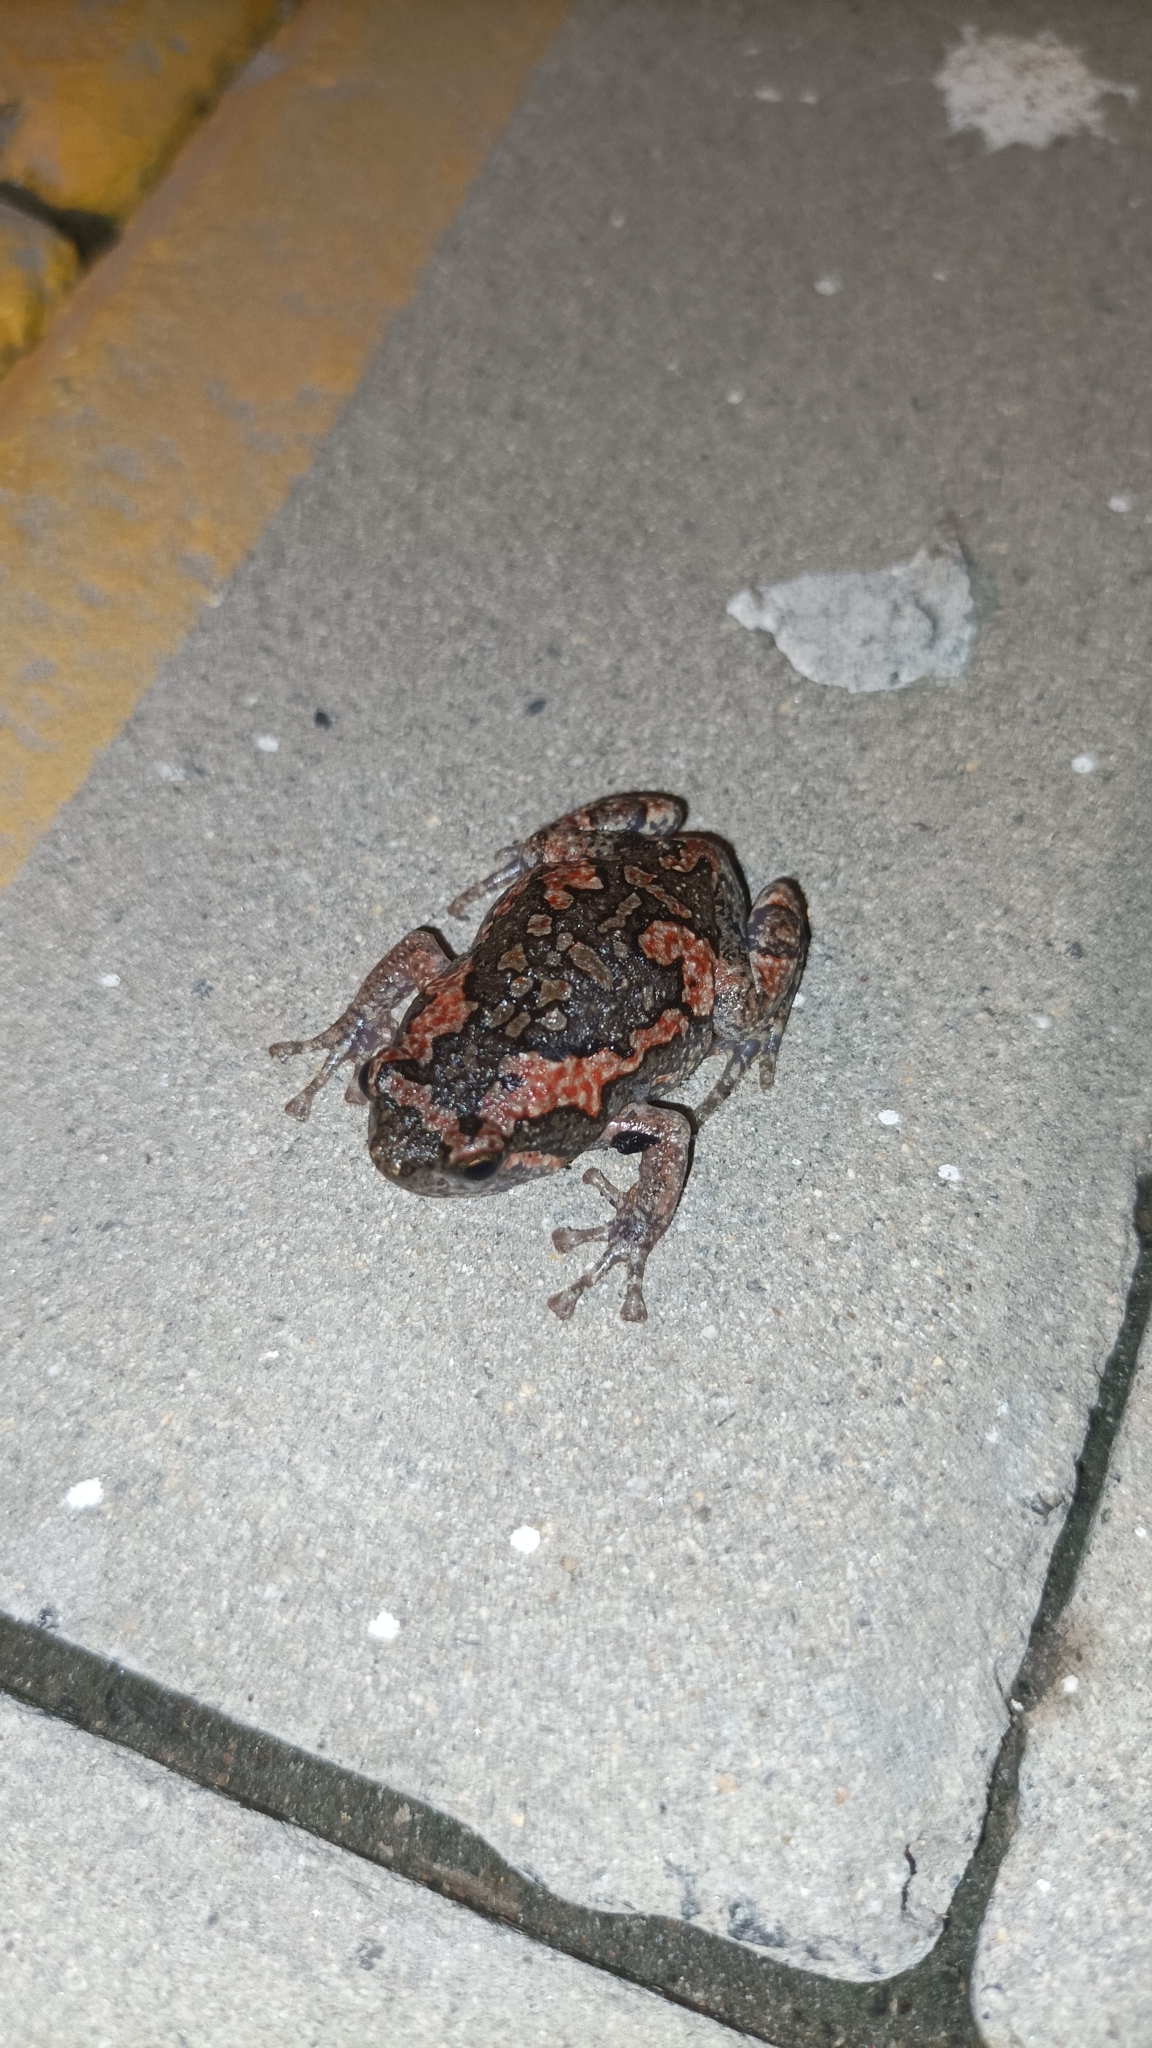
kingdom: Animalia
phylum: Chordata
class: Amphibia
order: Anura
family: Microhylidae
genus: Uperodon
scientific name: Uperodon taprobanicus
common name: Ceylon kaloula
